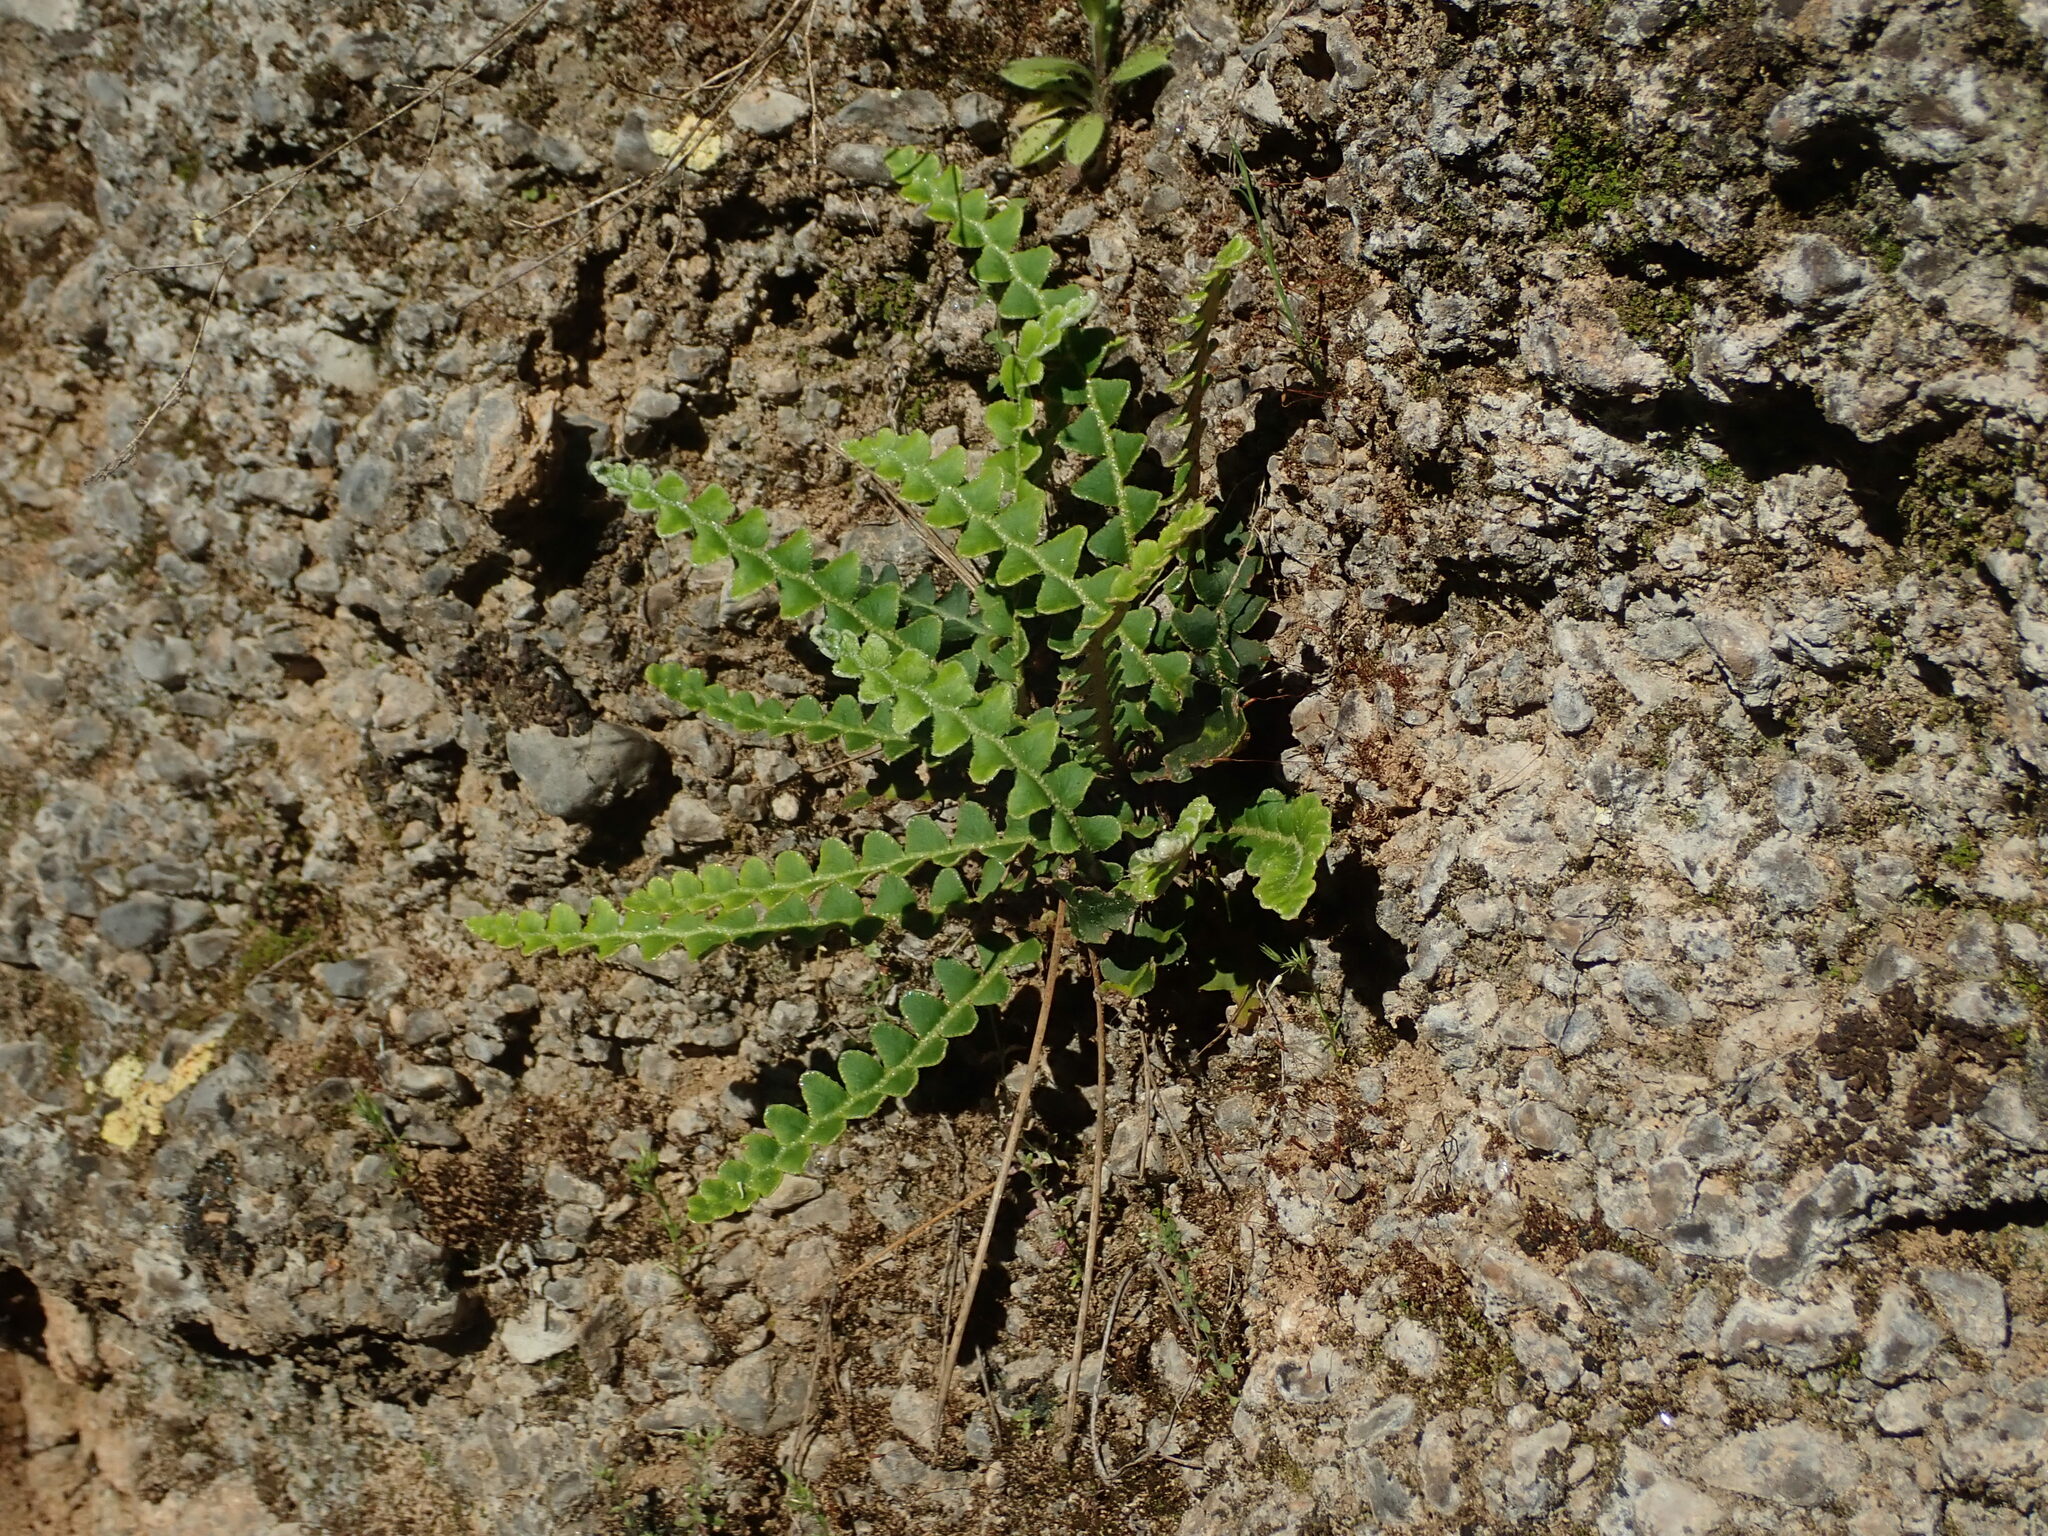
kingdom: Plantae
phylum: Tracheophyta
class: Polypodiopsida
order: Polypodiales
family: Aspleniaceae
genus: Asplenium
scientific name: Asplenium ceterach
